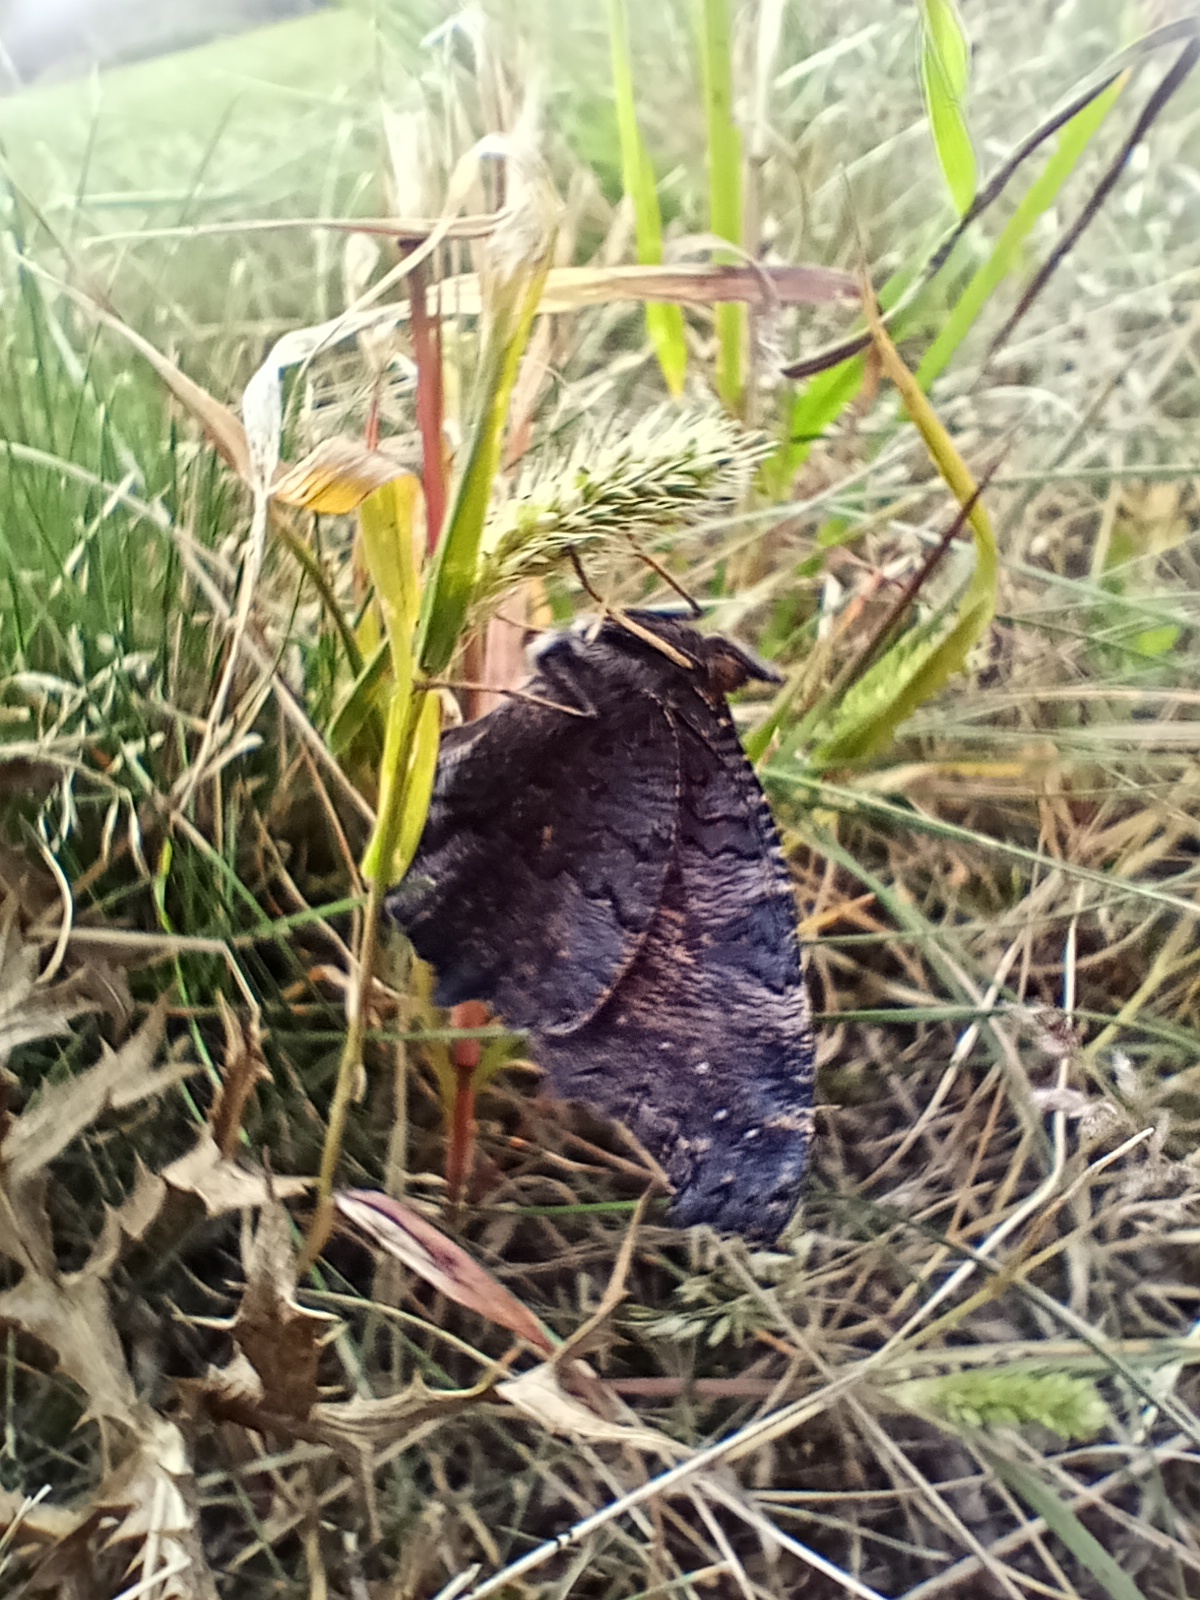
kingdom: Animalia
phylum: Arthropoda
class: Insecta
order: Lepidoptera
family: Nymphalidae
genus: Aglais
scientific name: Aglais io
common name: Peacock
